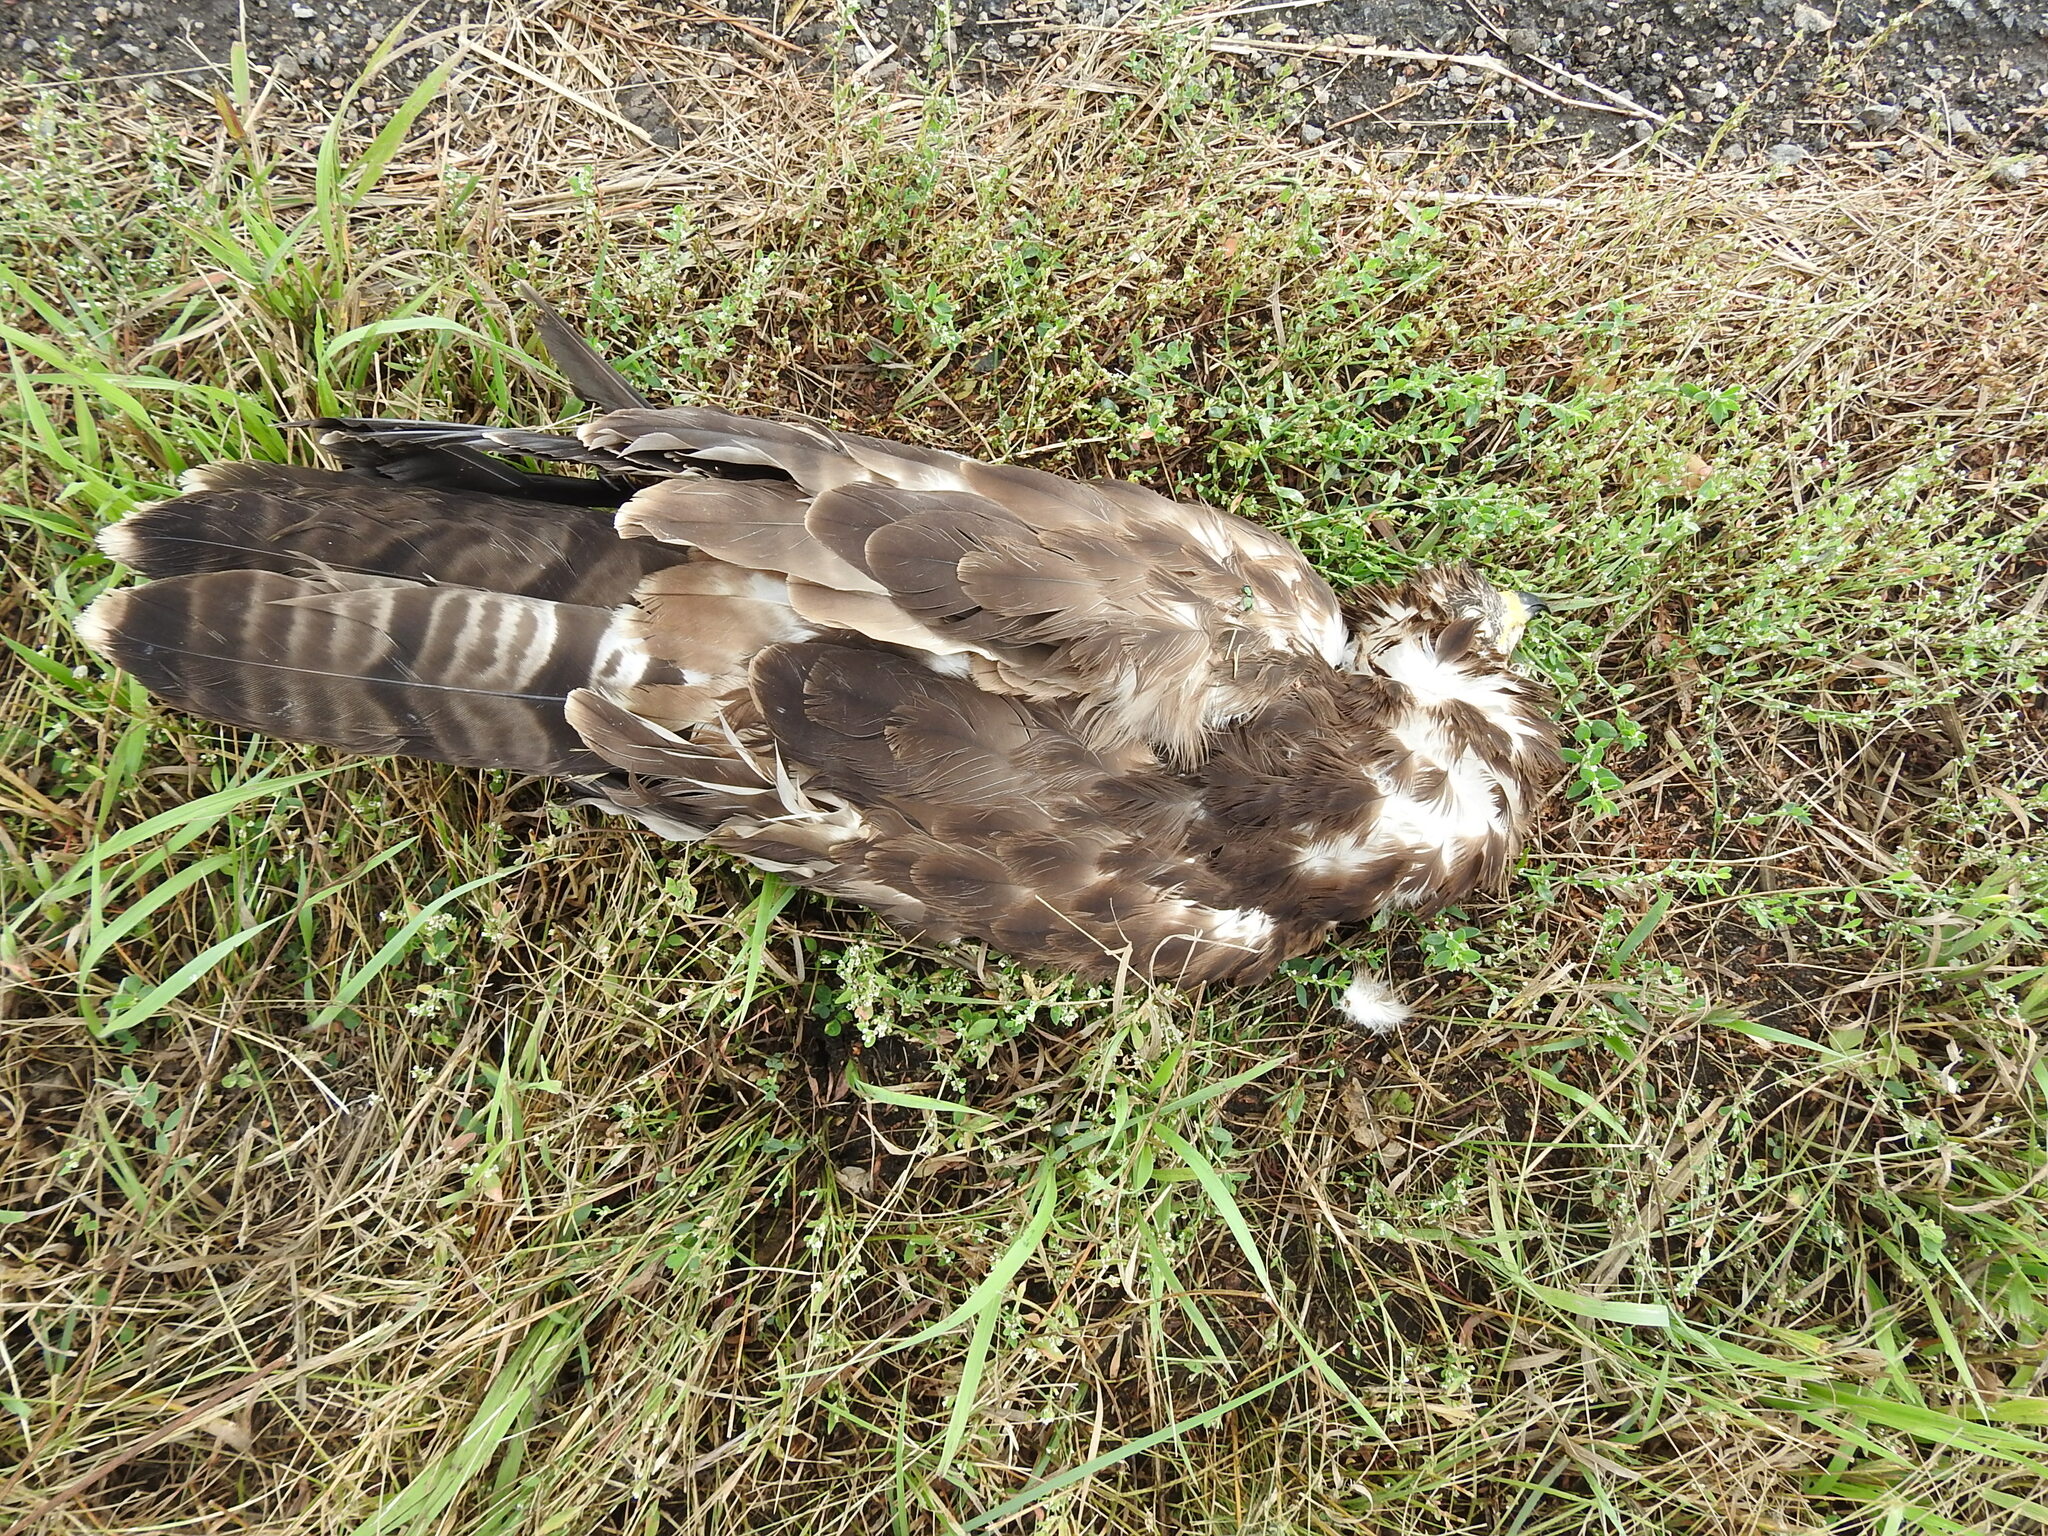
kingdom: Animalia
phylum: Chordata
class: Aves
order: Accipitriformes
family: Accipitridae
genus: Buteo
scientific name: Buteo buteo
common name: Common buzzard
